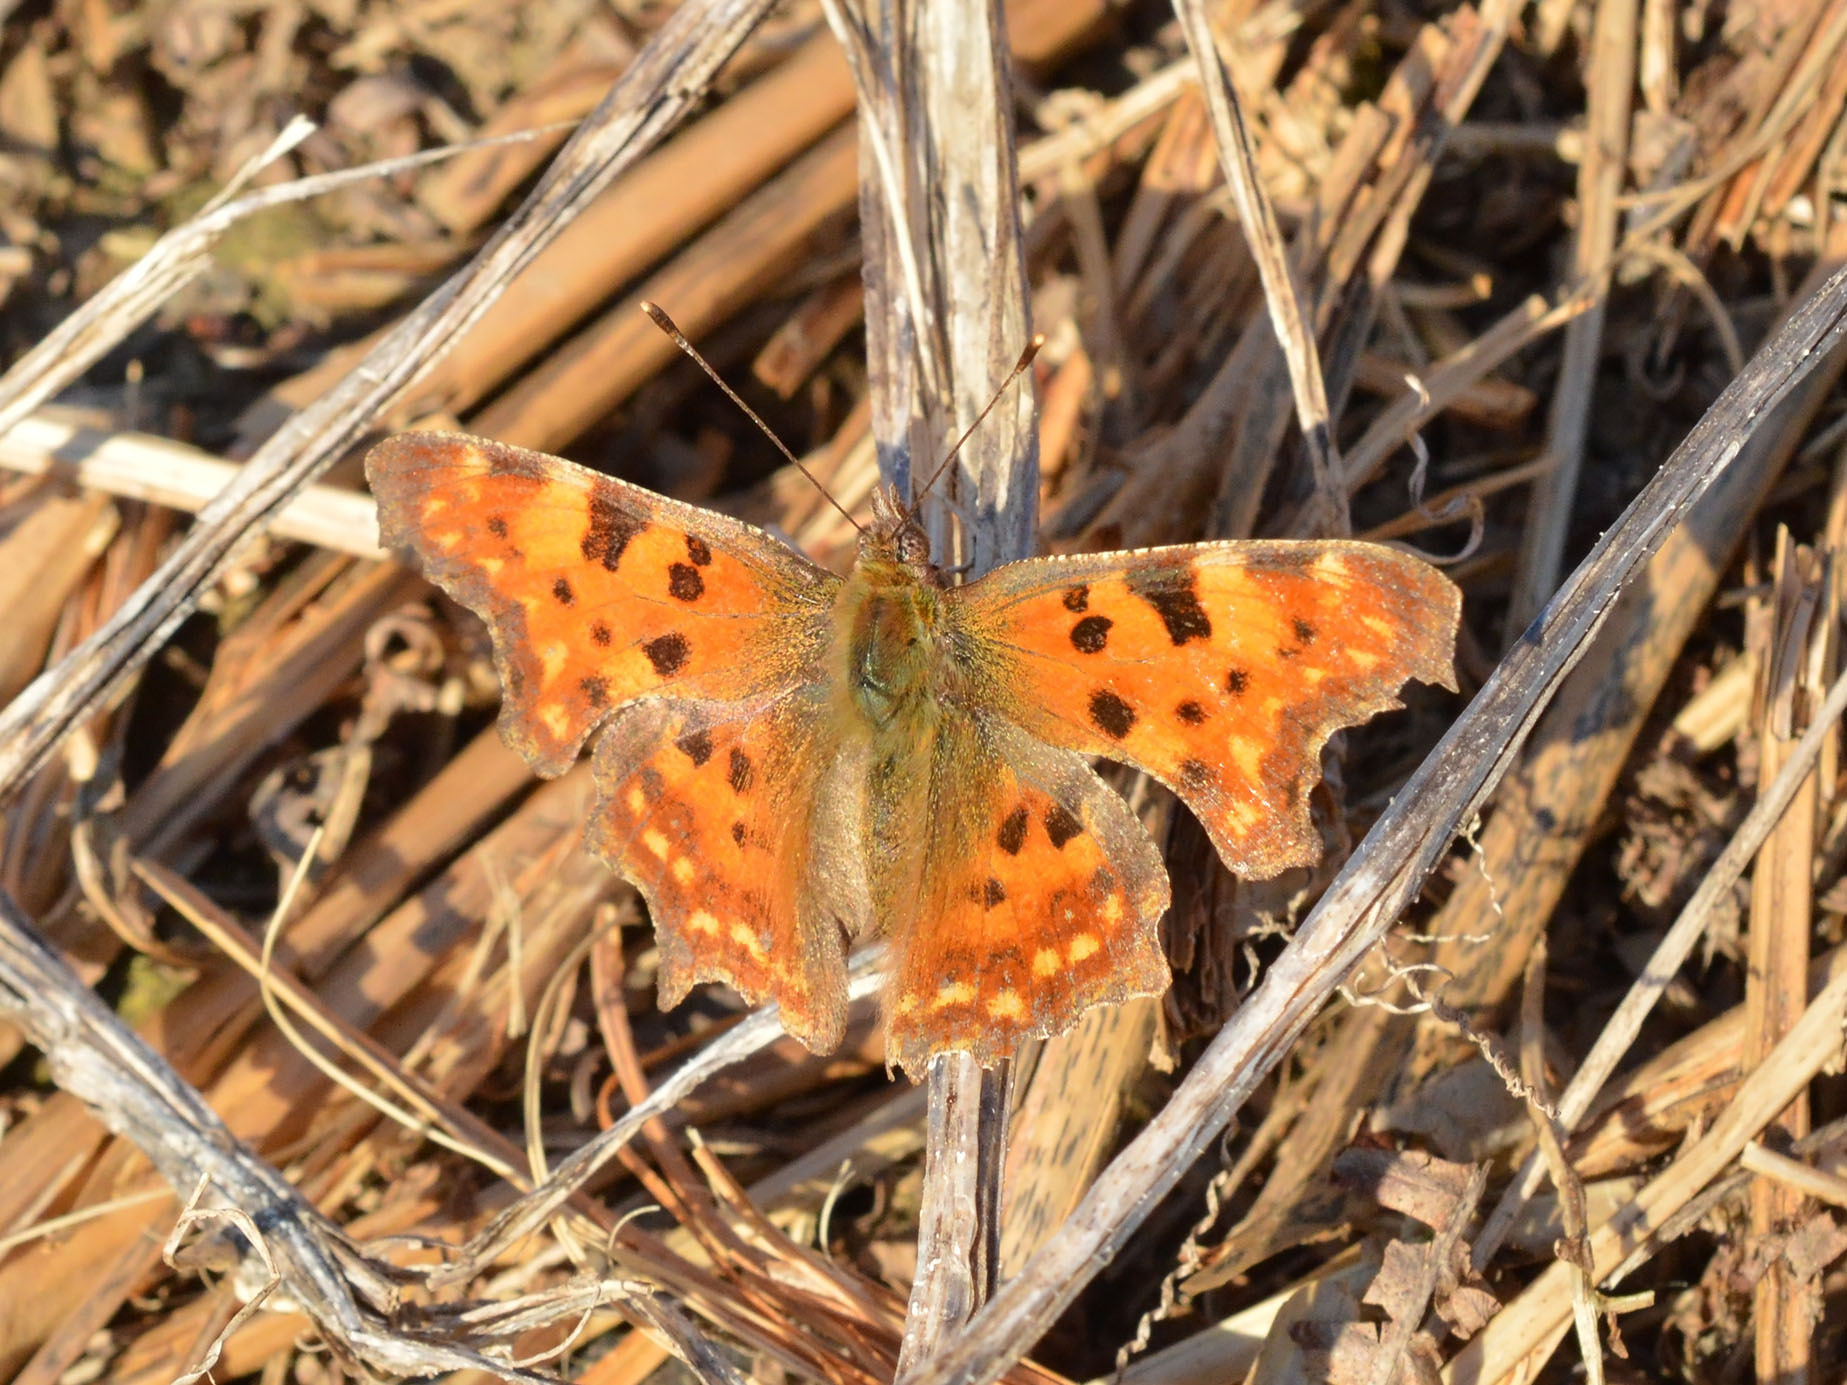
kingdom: Animalia
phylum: Arthropoda
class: Insecta
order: Lepidoptera
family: Nymphalidae
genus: Polygonia
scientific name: Polygonia c-album
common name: Comma
